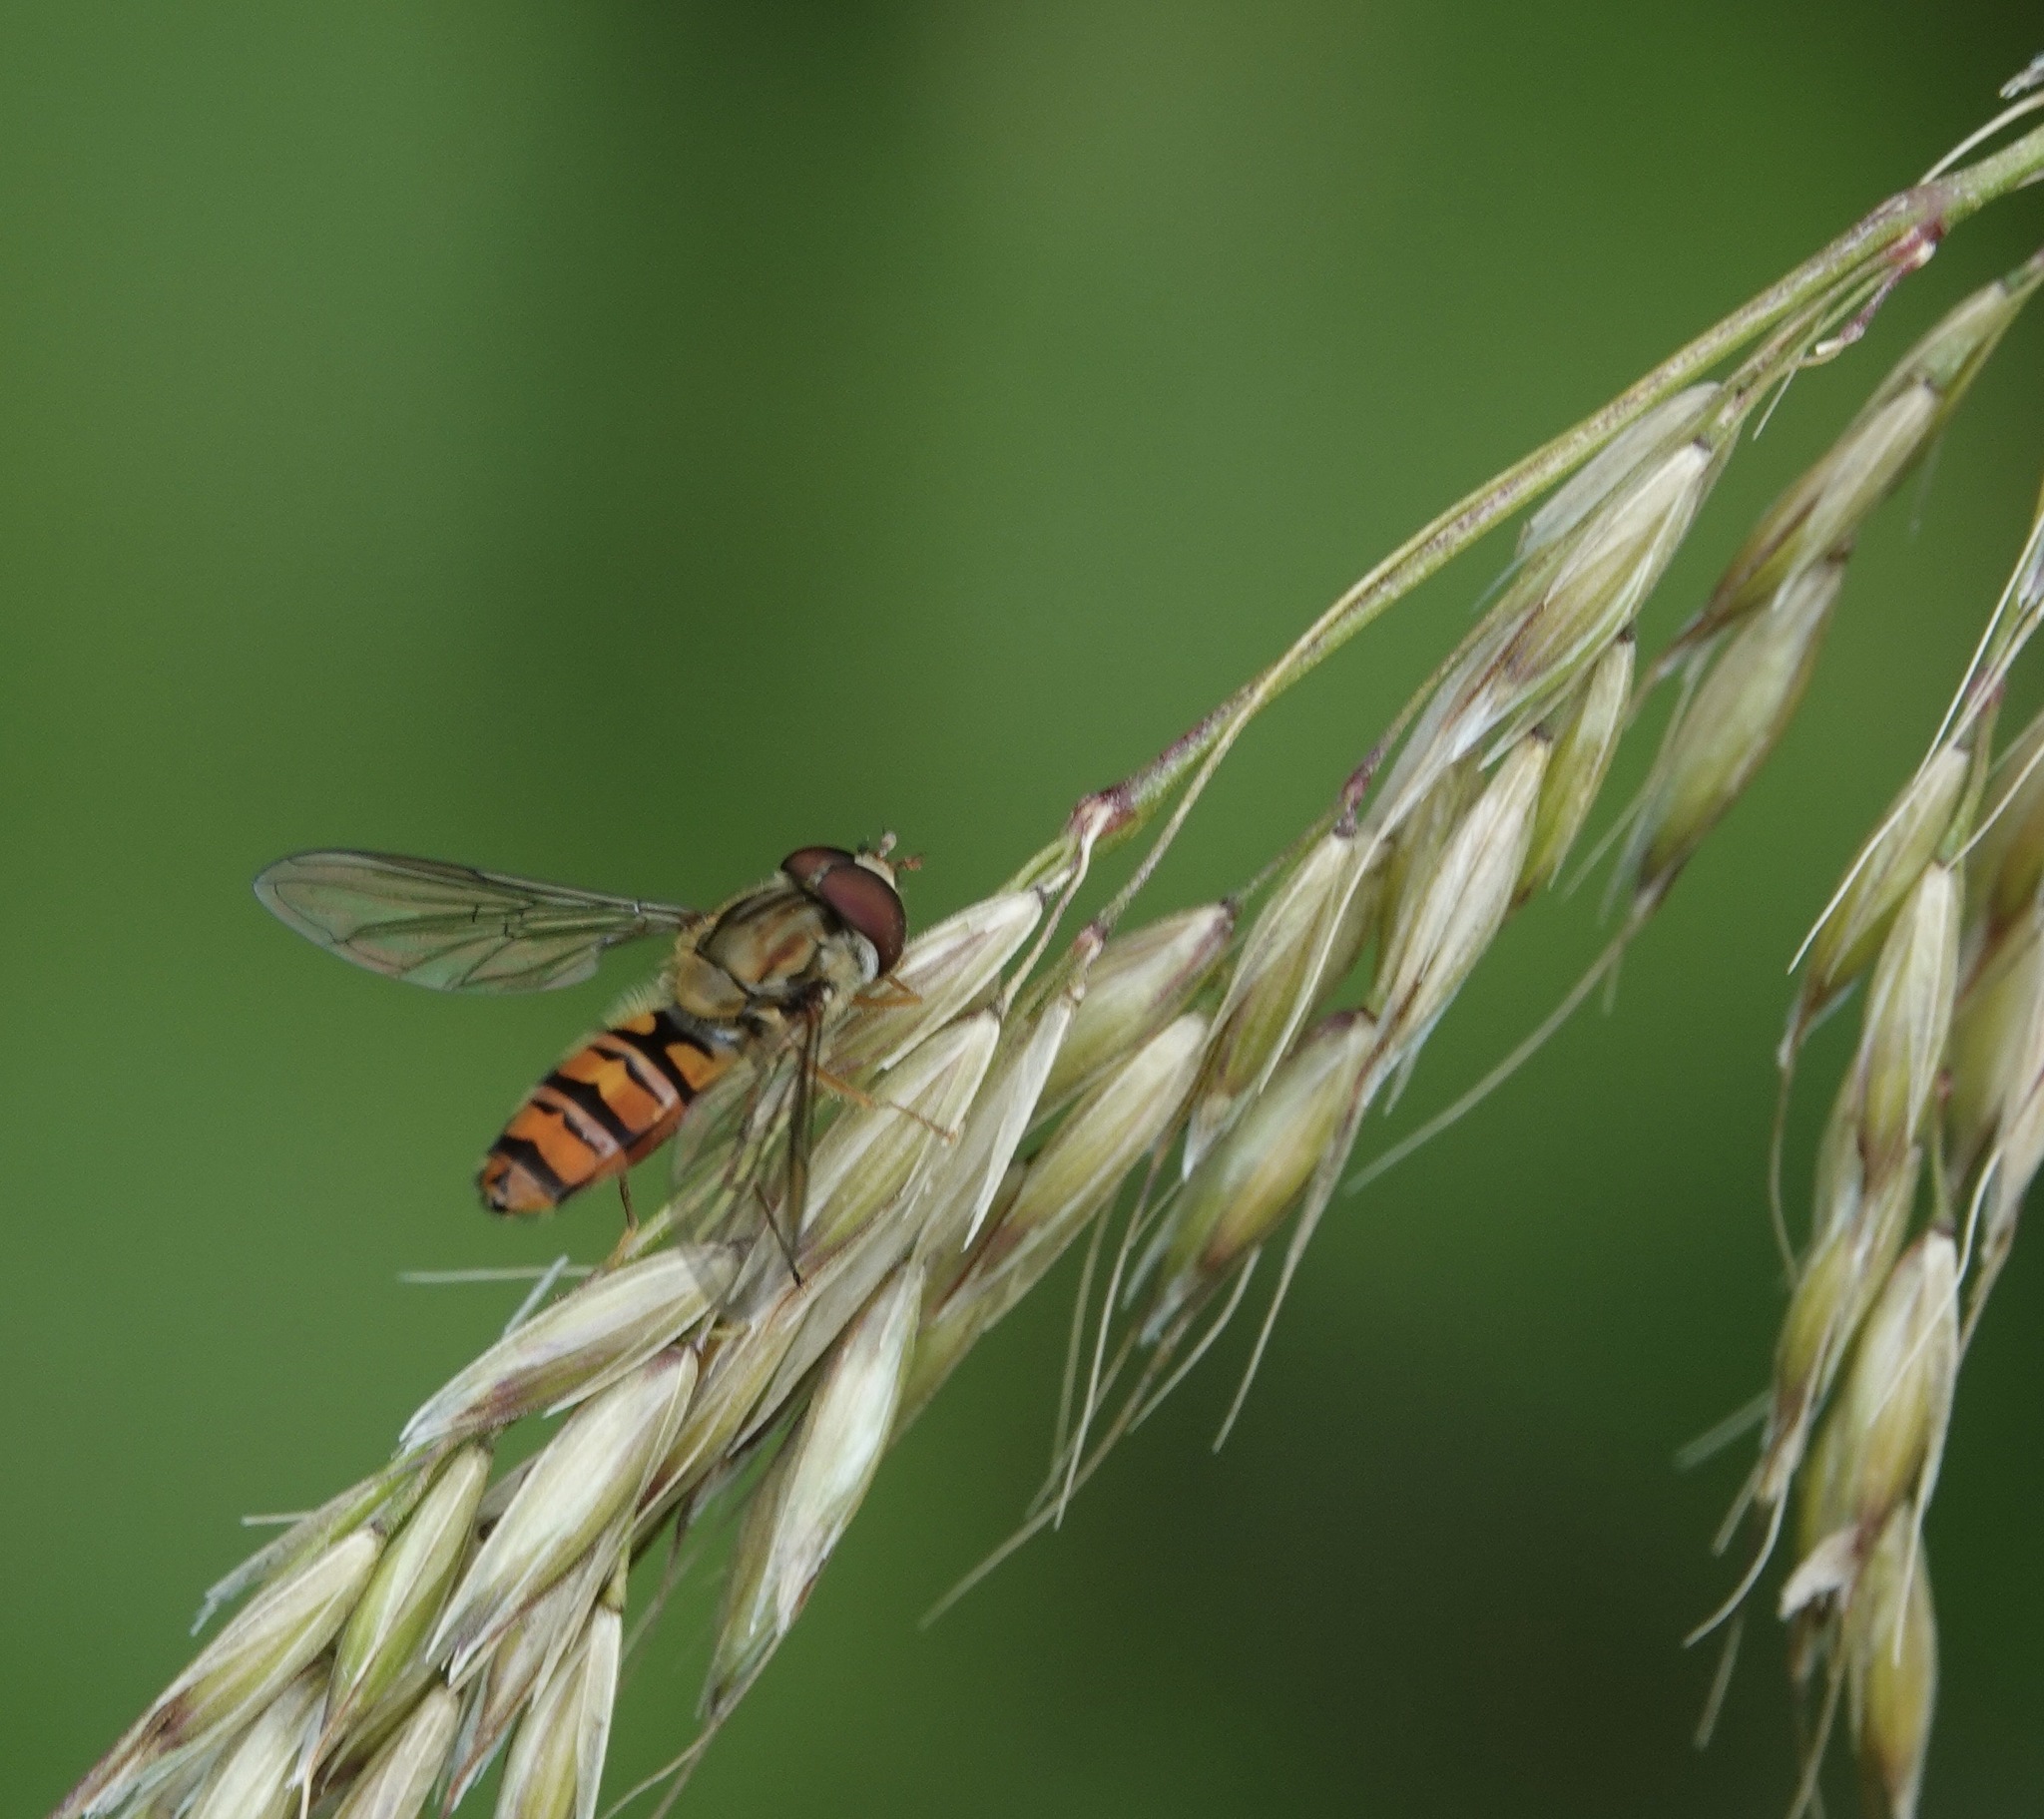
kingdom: Animalia
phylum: Arthropoda
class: Insecta
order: Diptera
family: Syrphidae
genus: Episyrphus
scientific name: Episyrphus balteatus
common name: Marmalade hoverfly
